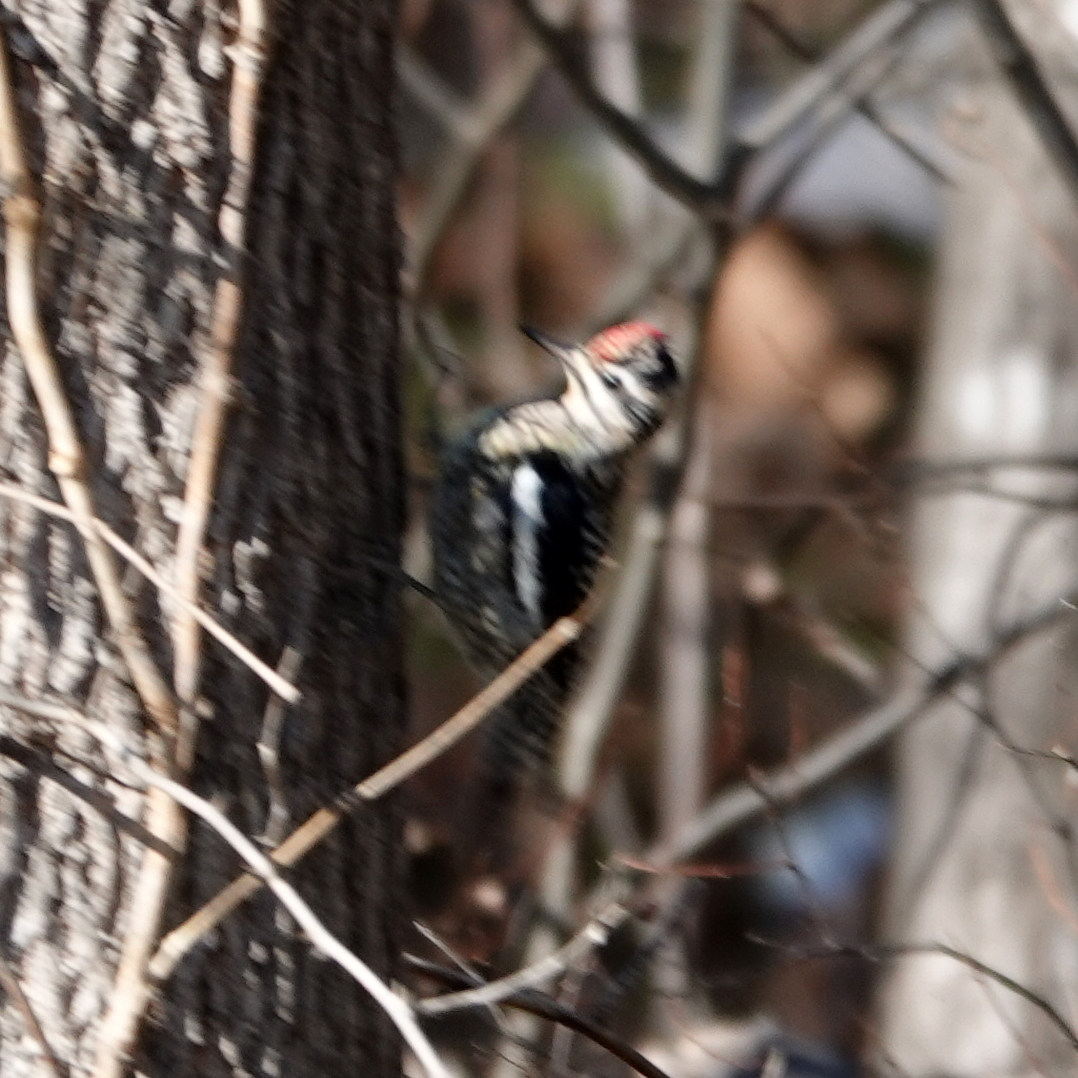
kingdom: Animalia
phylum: Chordata
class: Aves
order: Piciformes
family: Picidae
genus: Sphyrapicus
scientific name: Sphyrapicus varius
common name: Yellow-bellied sapsucker
